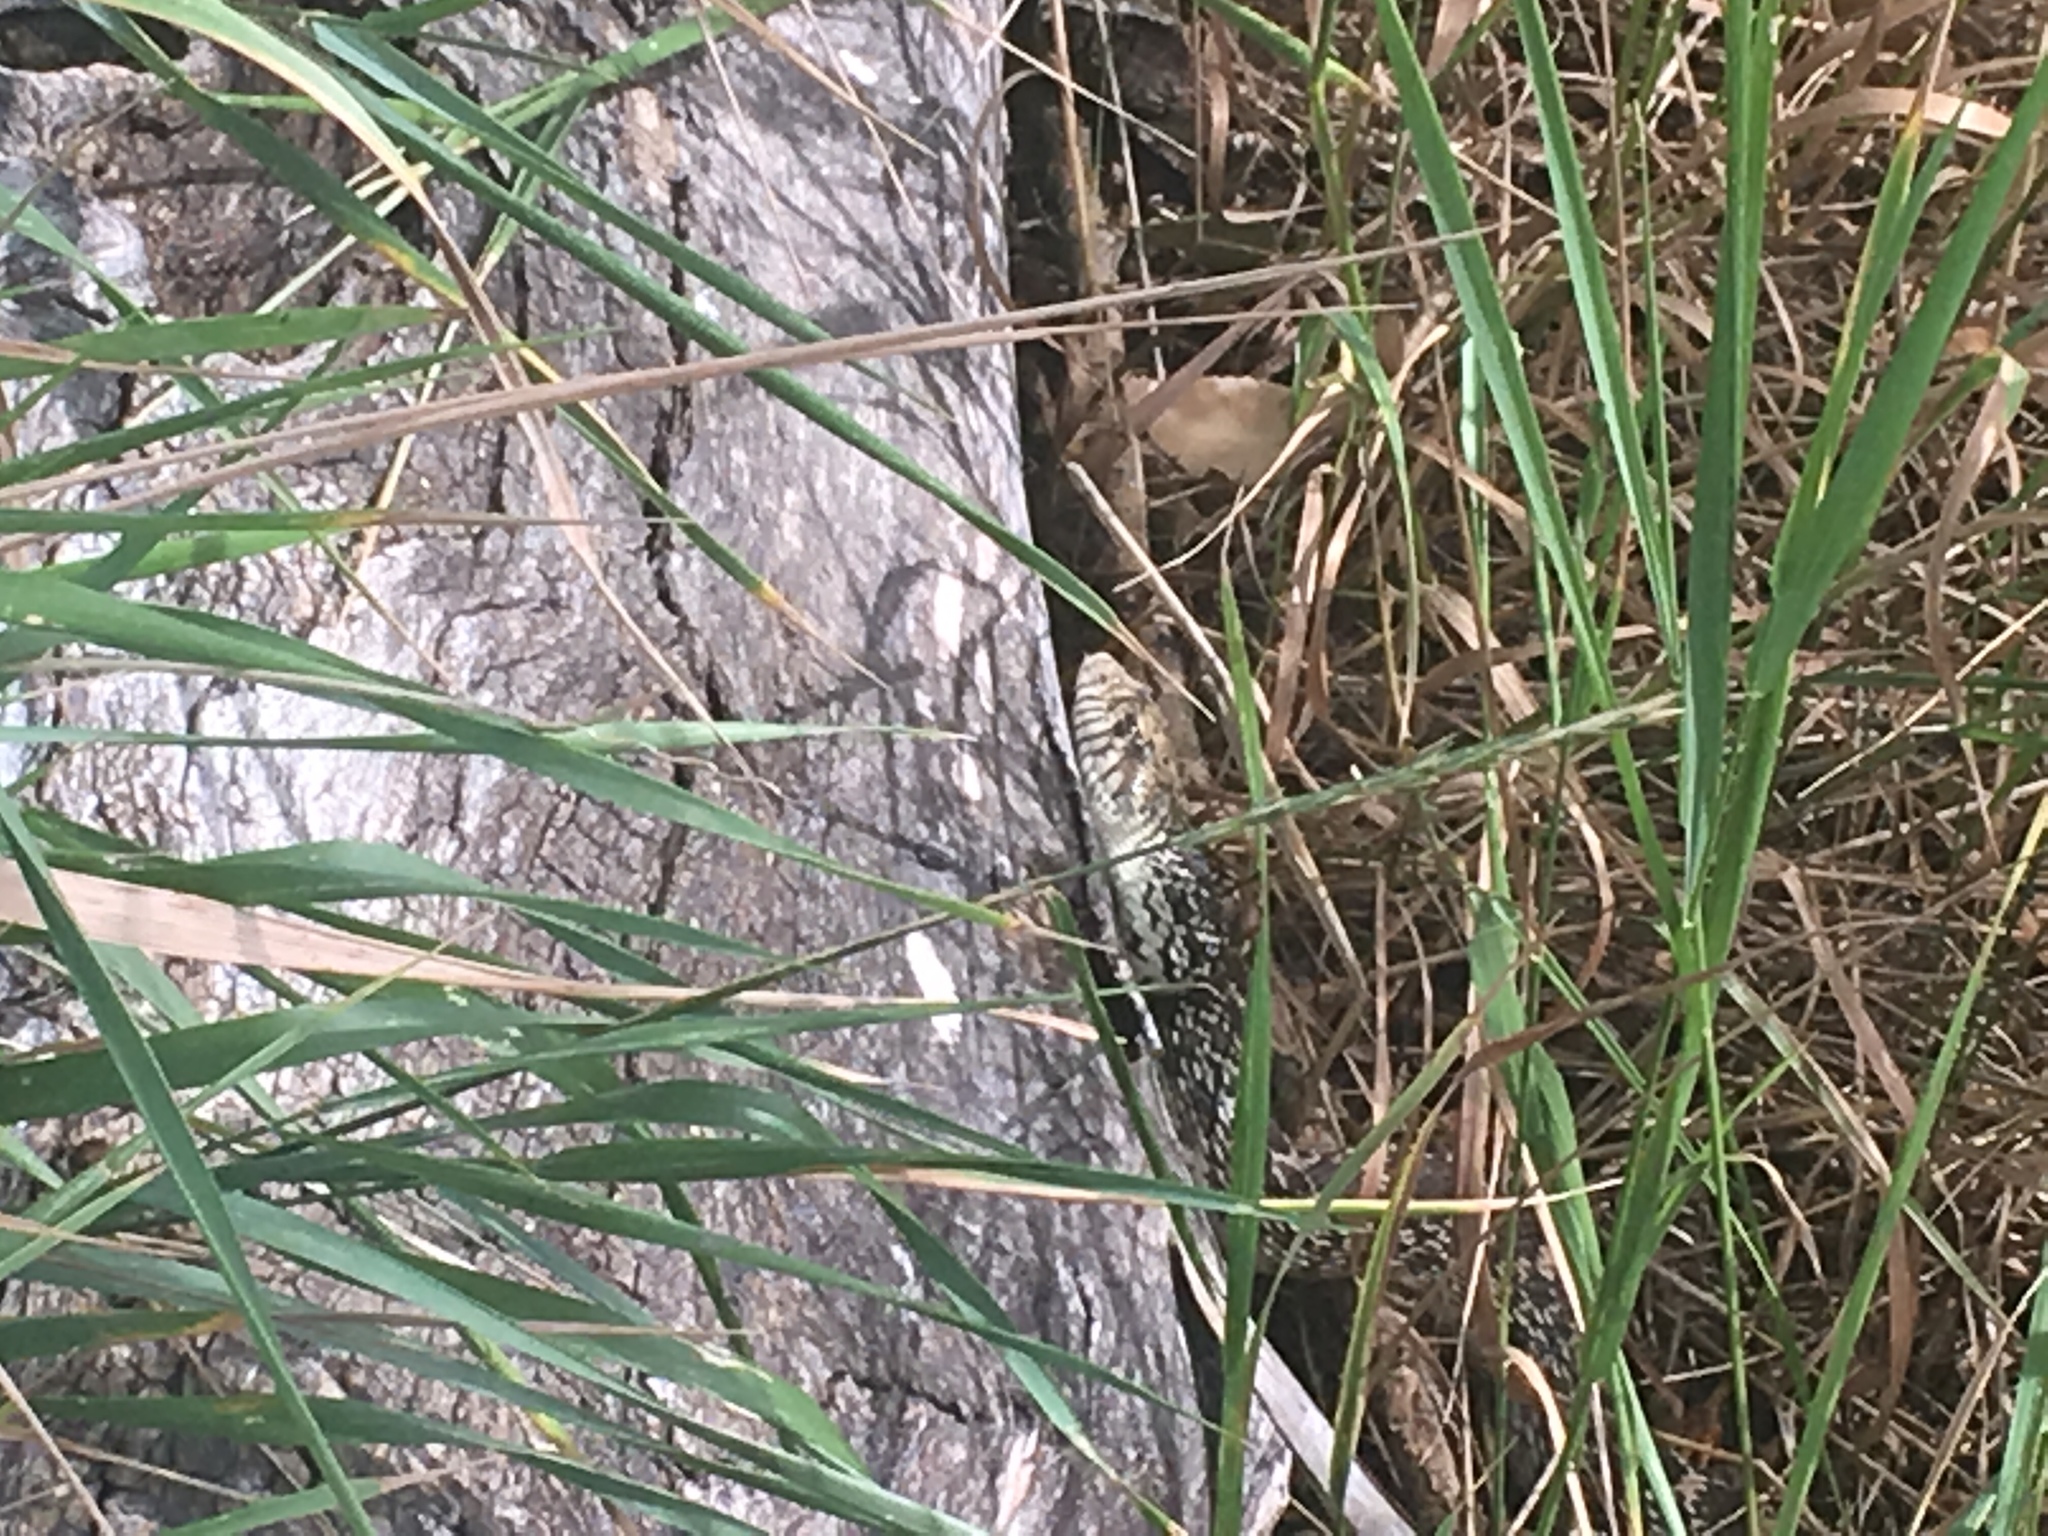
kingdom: Animalia
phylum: Chordata
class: Squamata
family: Colubridae
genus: Pituophis
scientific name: Pituophis catenifer
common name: Gopher snake
